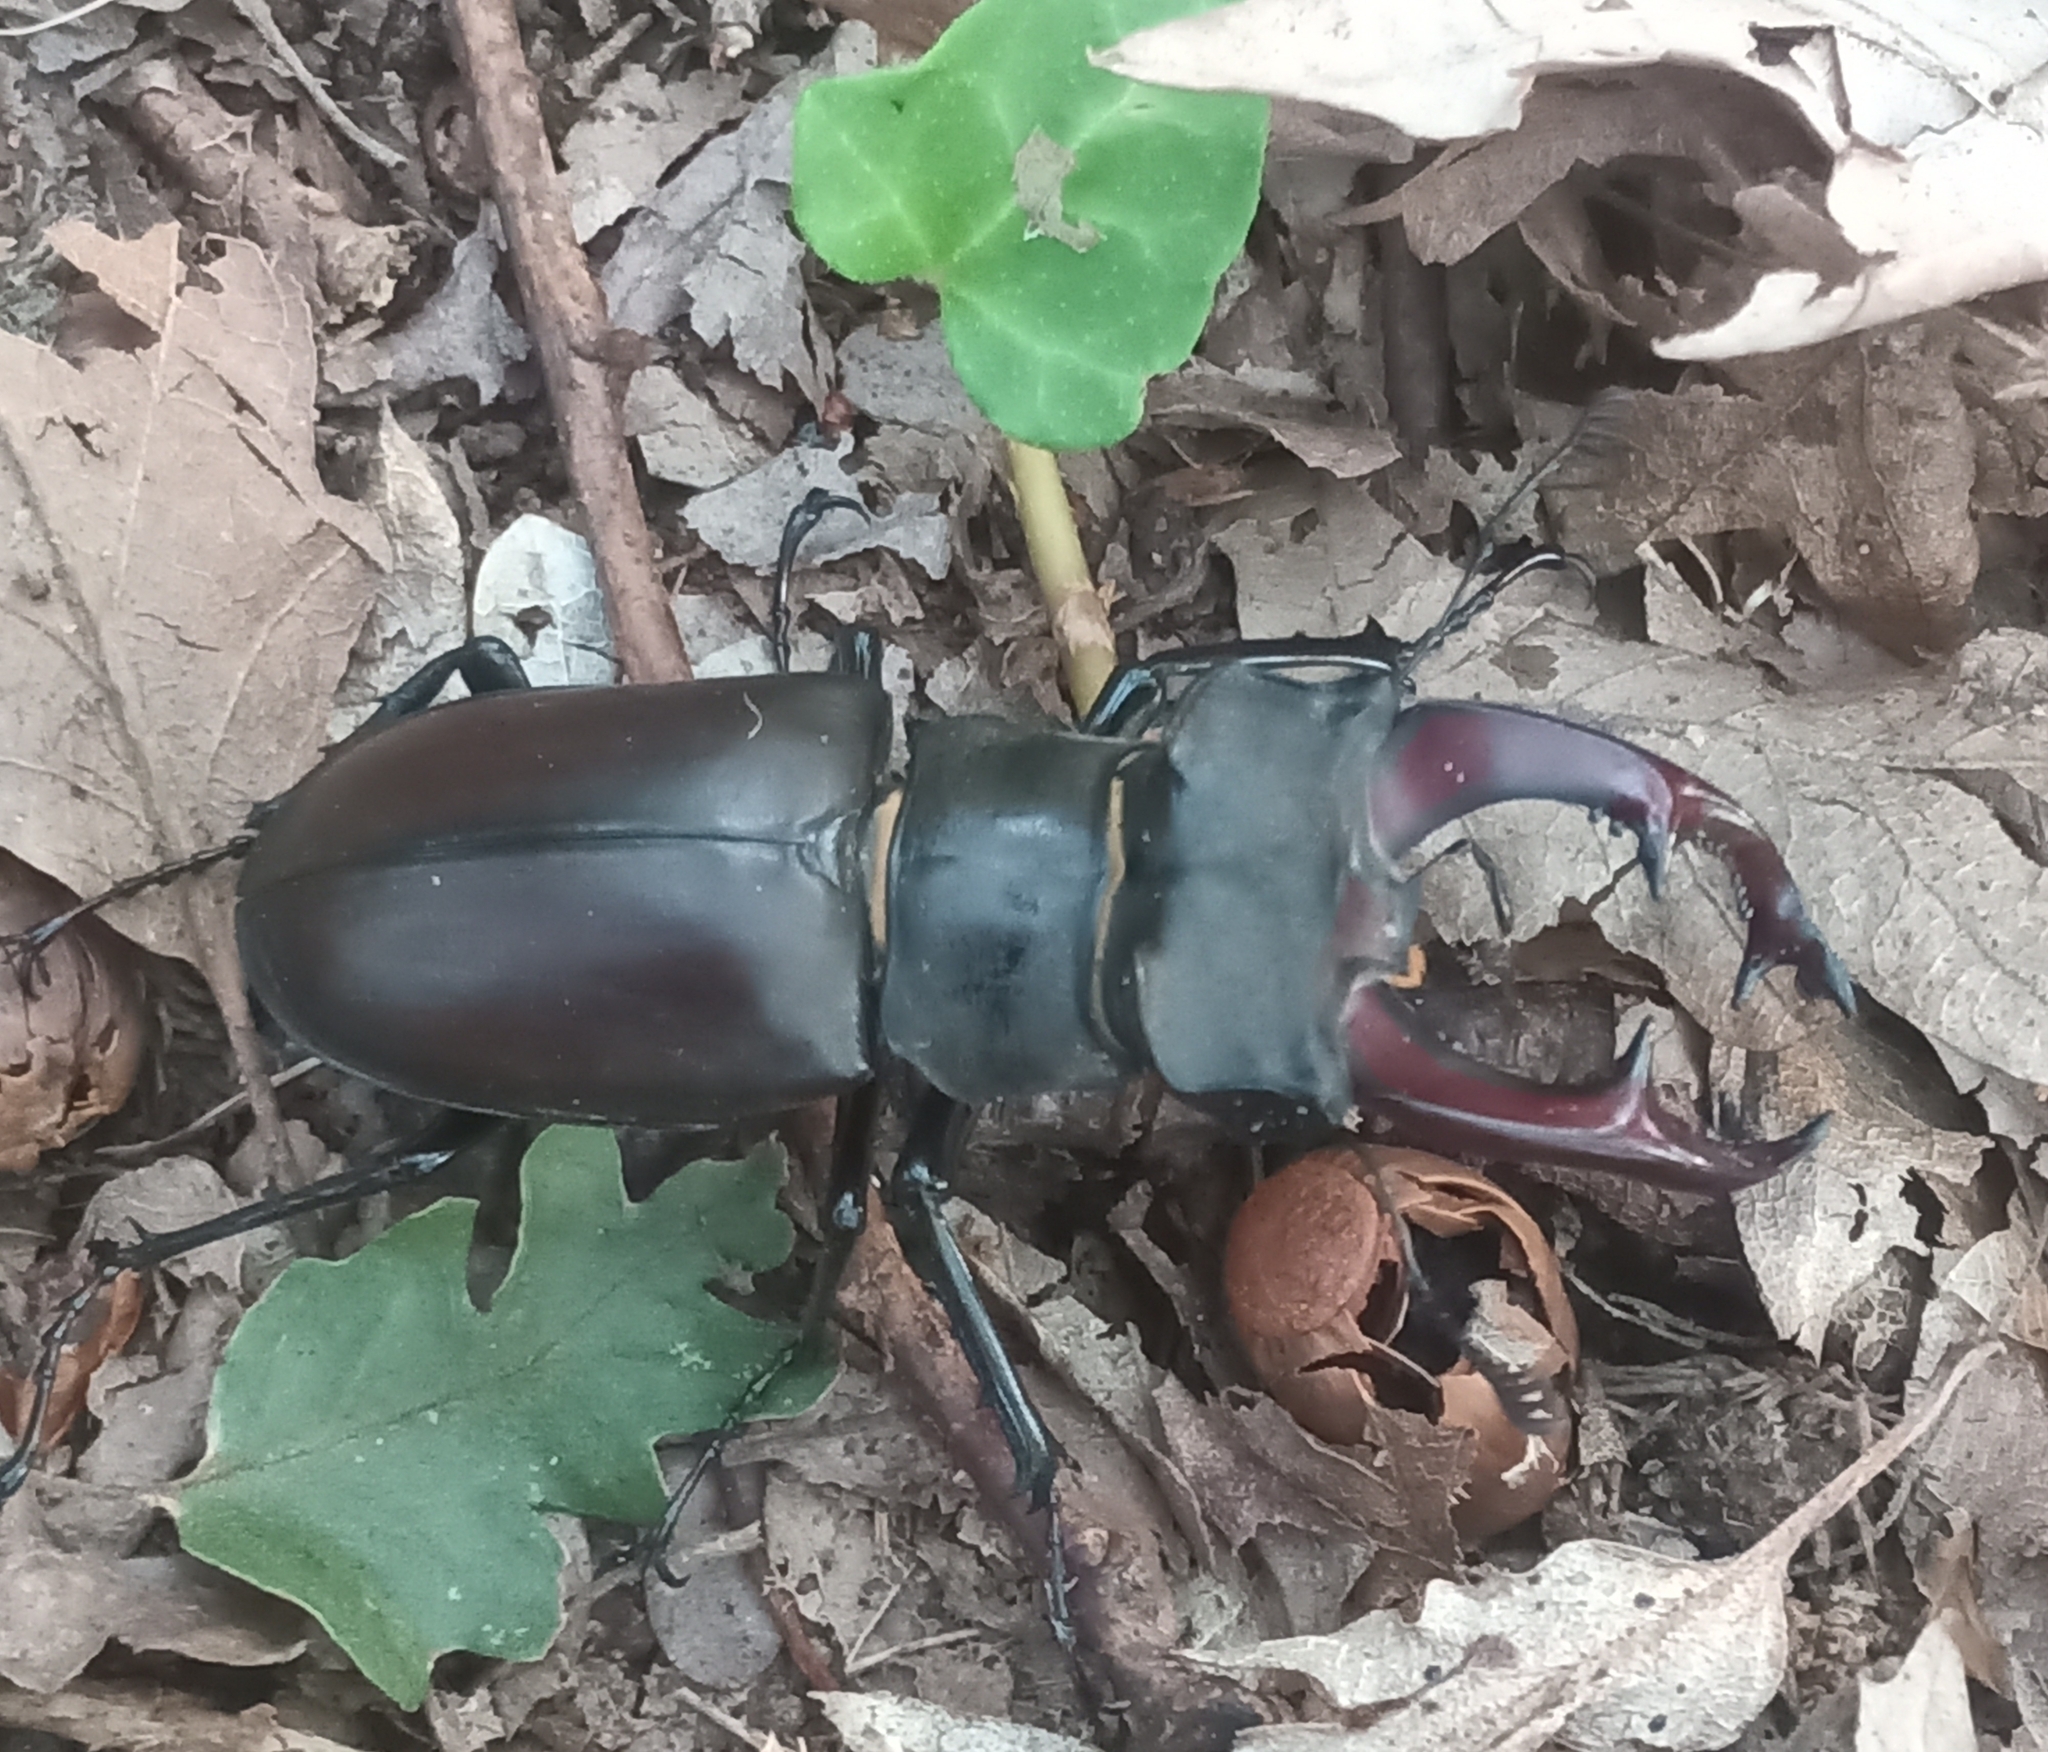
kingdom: Animalia
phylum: Arthropoda
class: Insecta
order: Coleoptera
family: Lucanidae
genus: Lucanus
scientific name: Lucanus cervus
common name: Stag beetle
